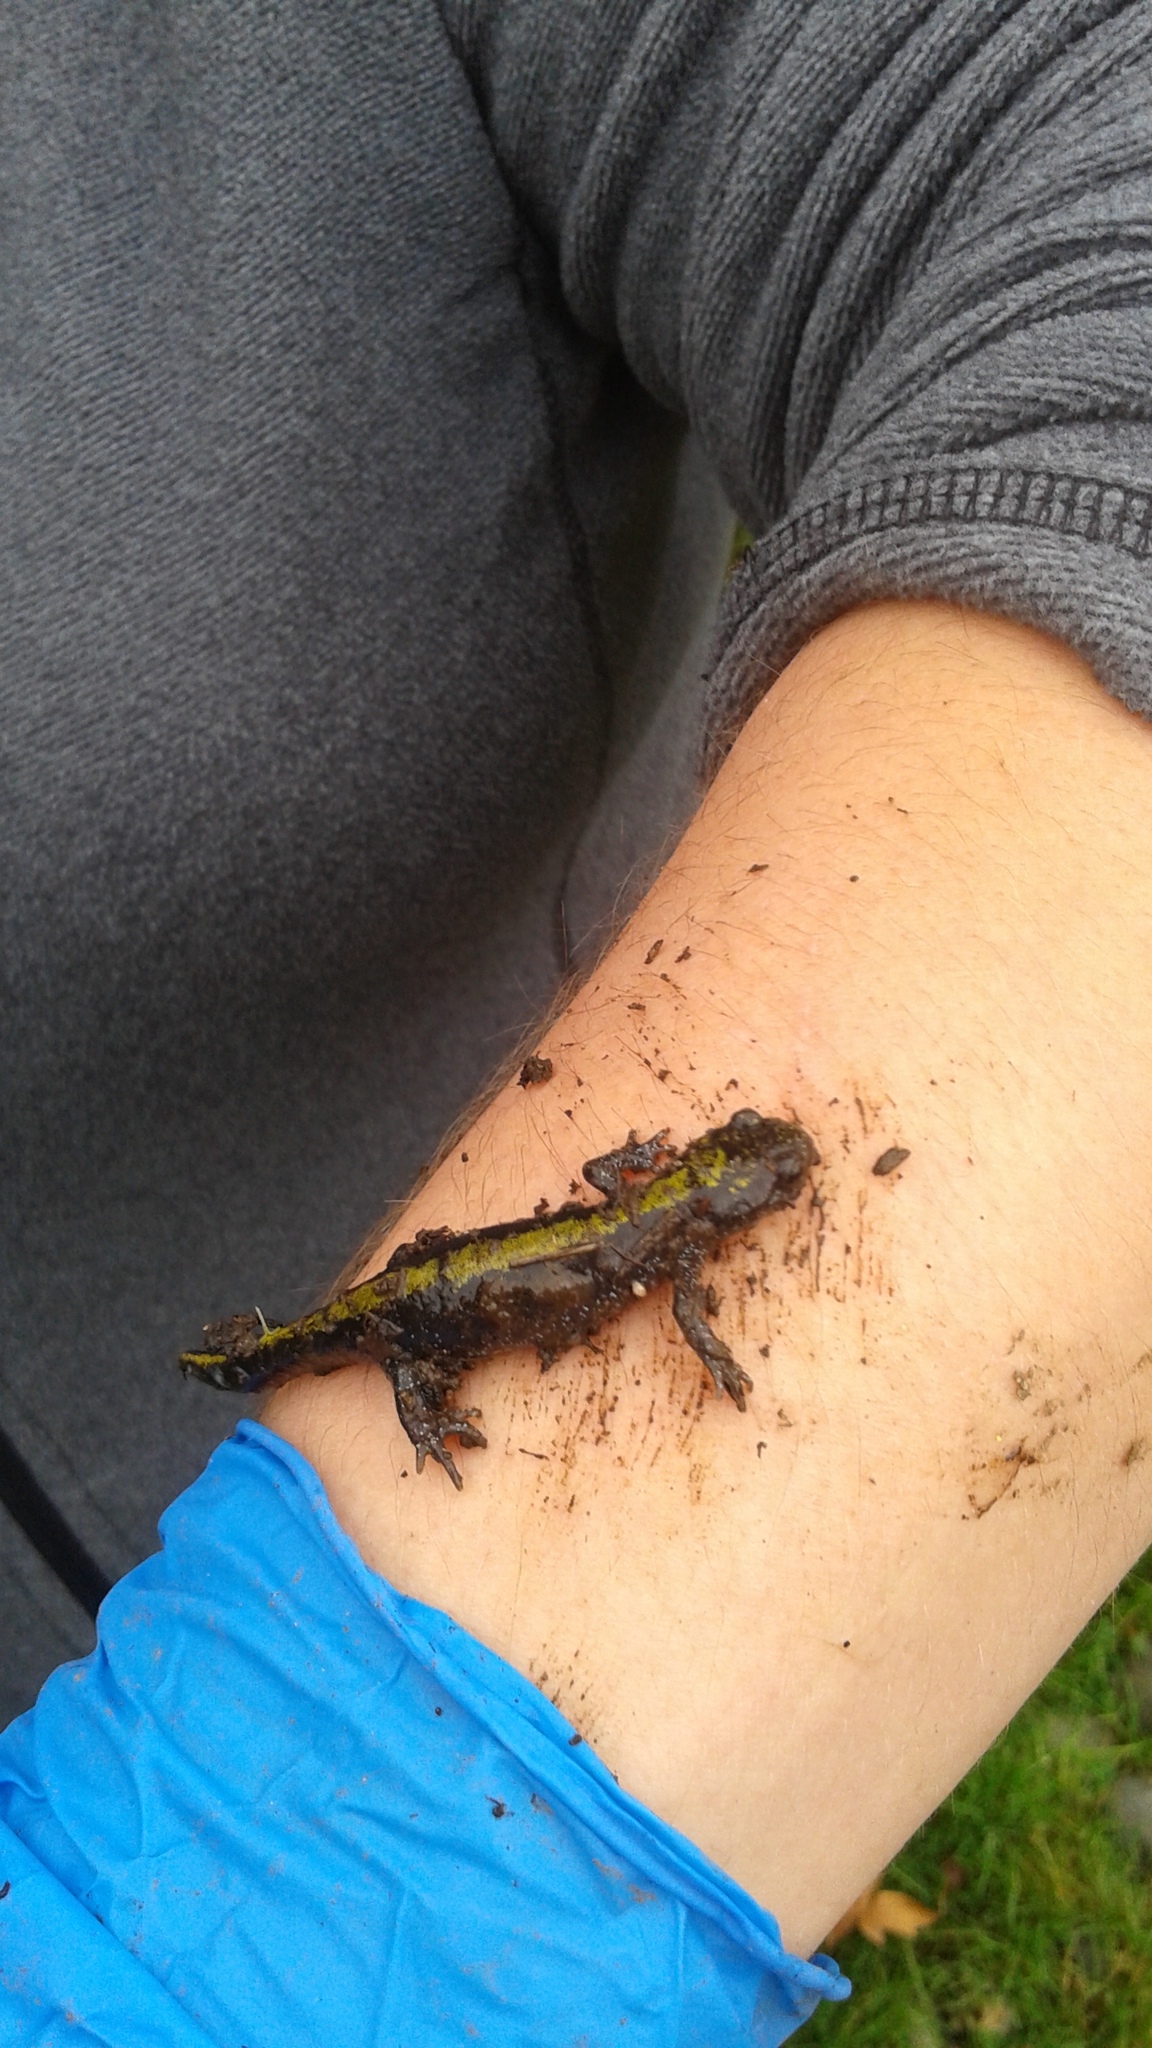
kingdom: Animalia
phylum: Chordata
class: Amphibia
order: Caudata
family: Ambystomatidae
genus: Ambystoma
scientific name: Ambystoma macrodactylum
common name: Long-toed salamander
